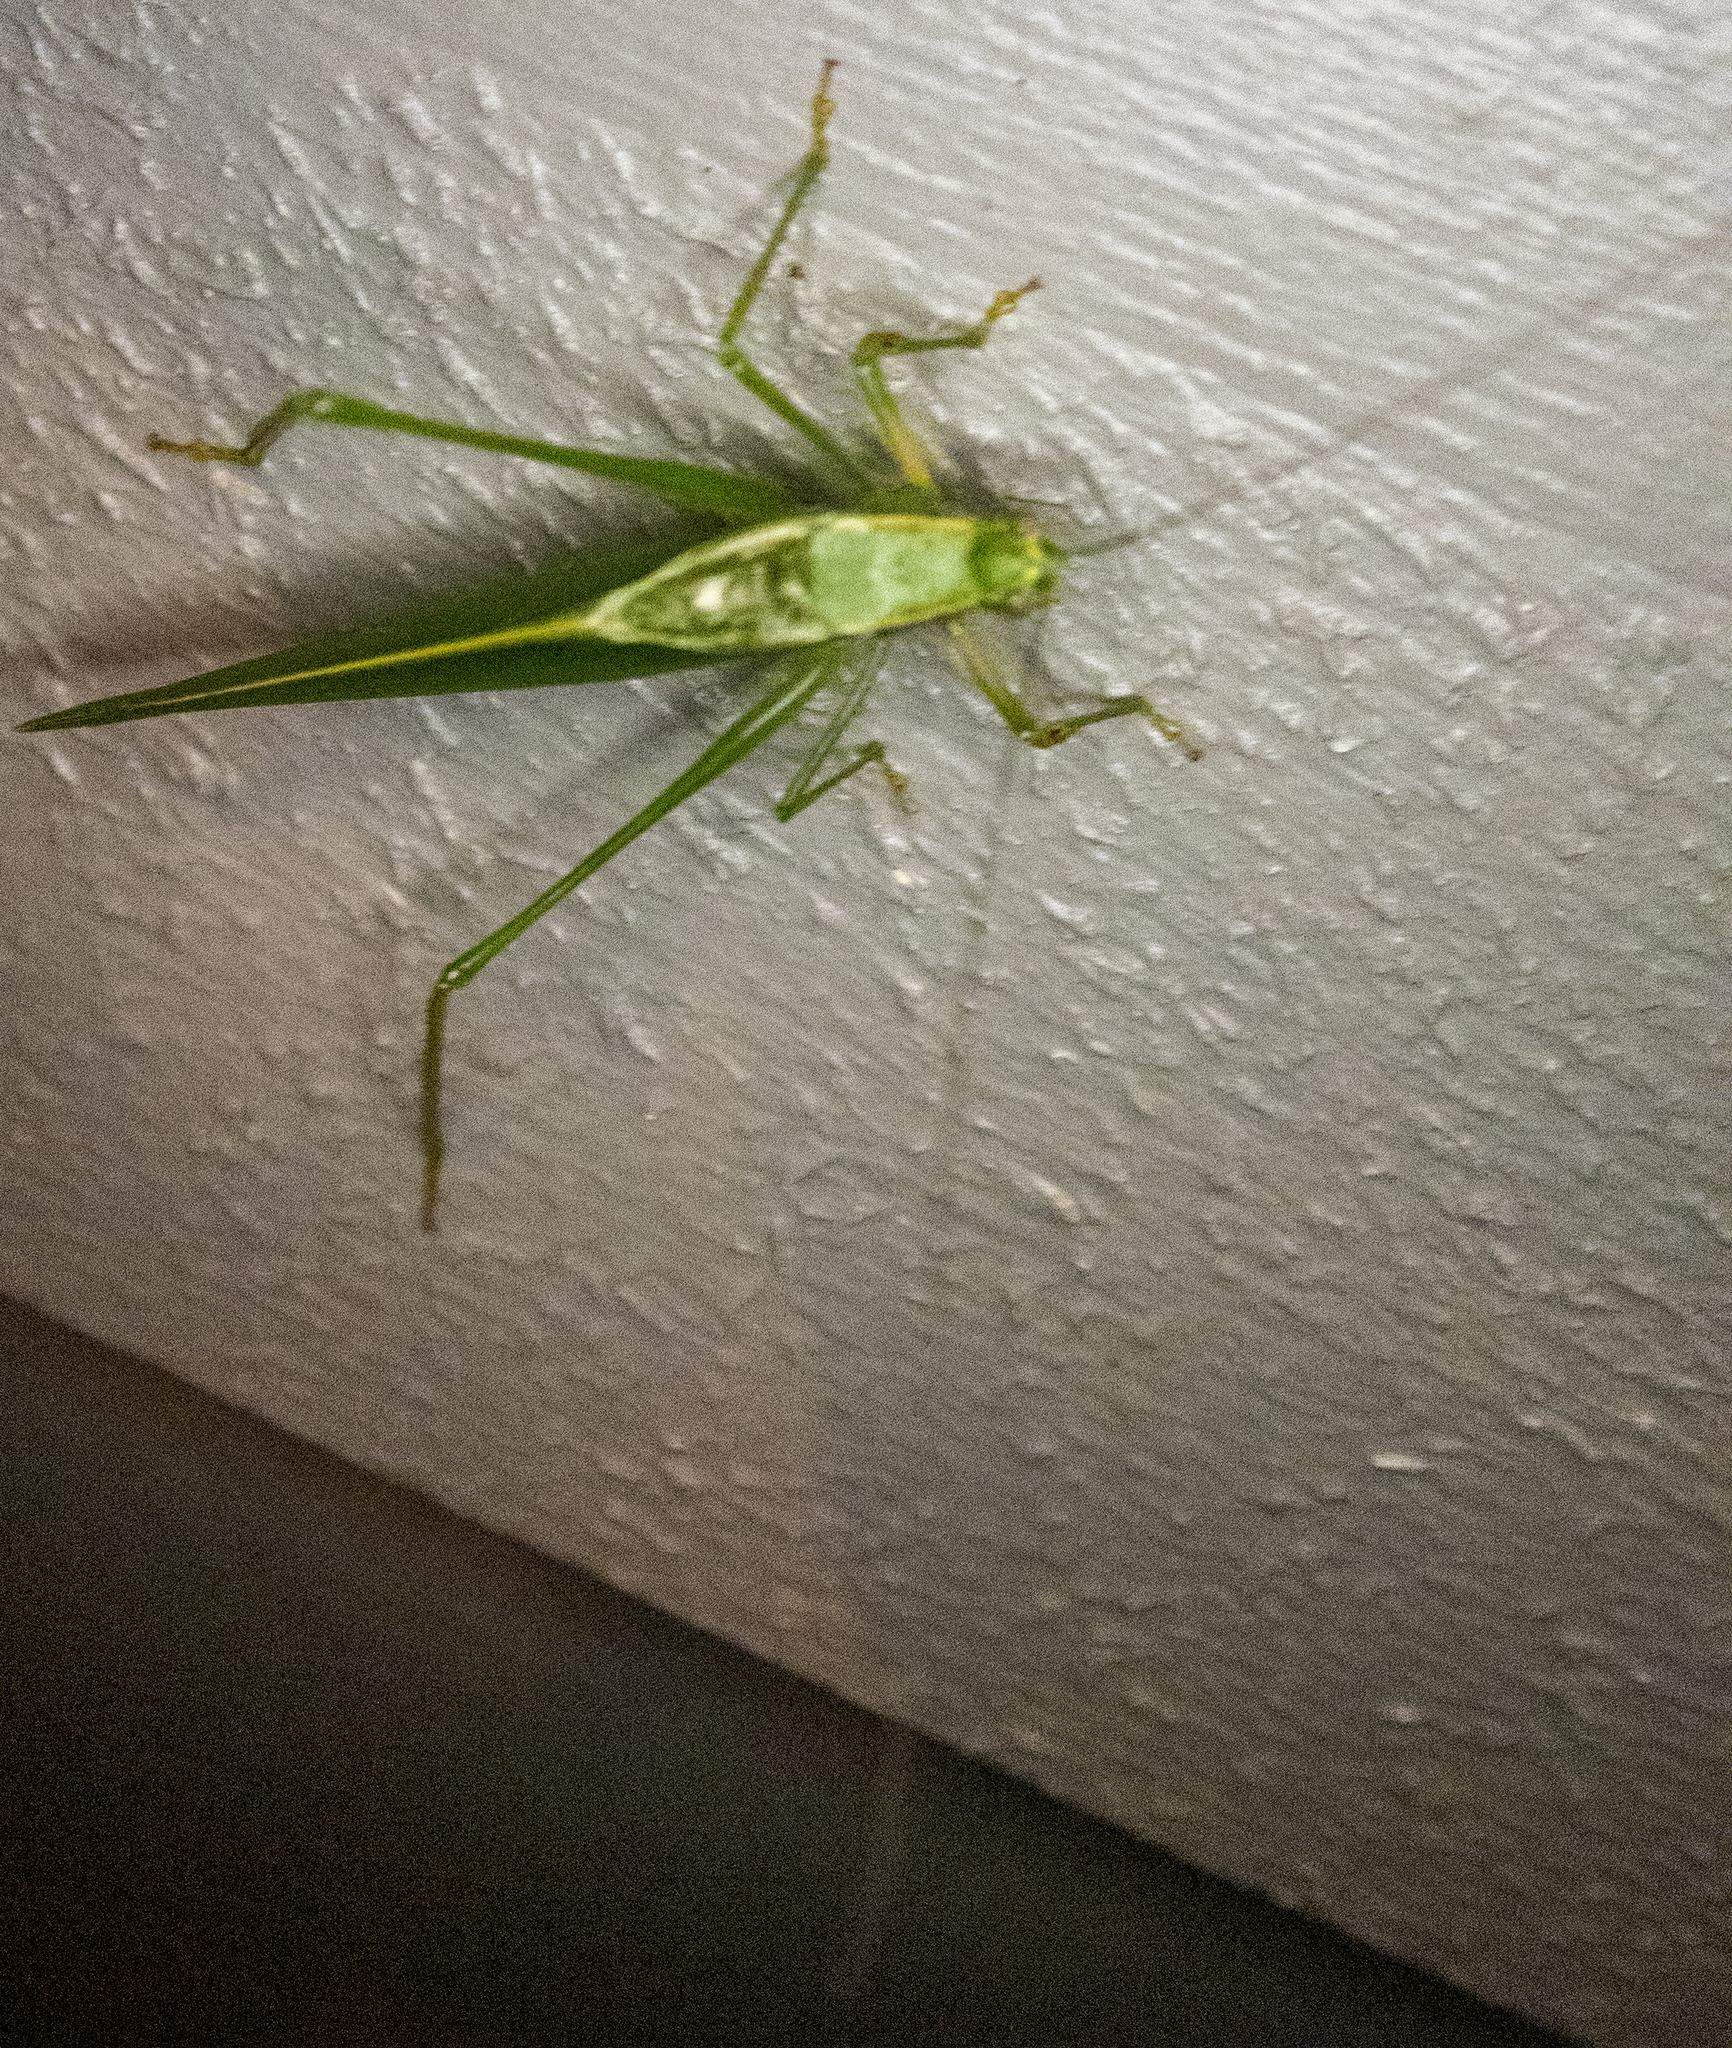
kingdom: Animalia
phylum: Arthropoda
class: Insecta
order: Orthoptera
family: Tettigoniidae
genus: Scudderia
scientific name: Scudderia septentrionalis
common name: Northern bush-katydid
